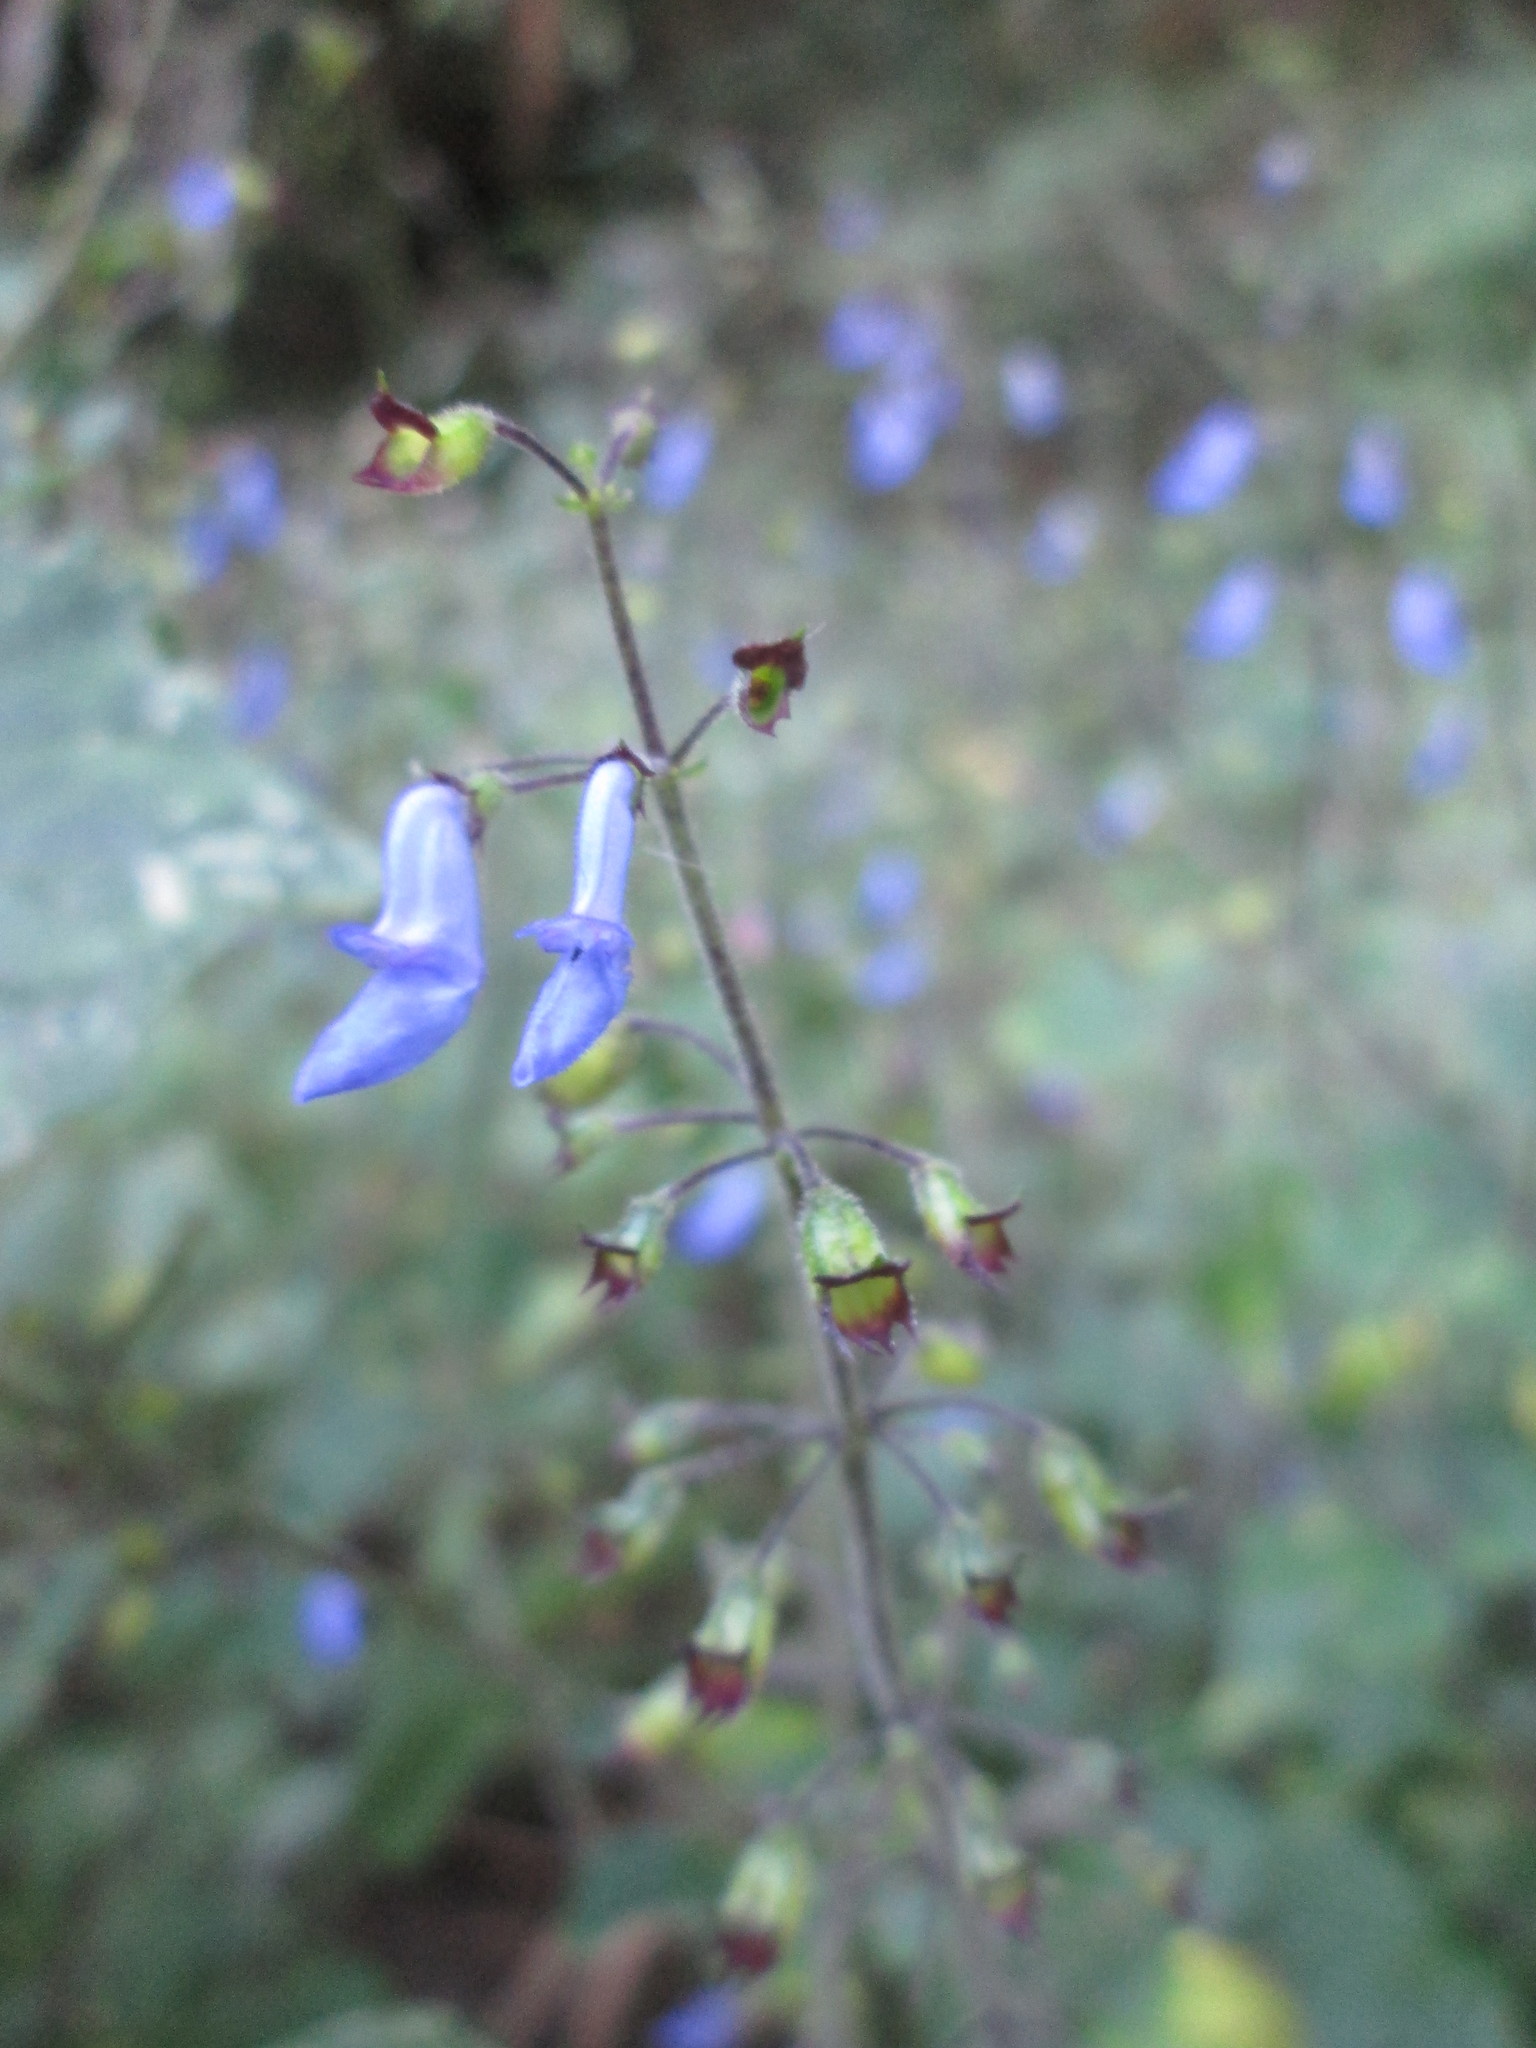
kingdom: Plantae
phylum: Tracheophyta
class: Magnoliopsida
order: Lamiales
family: Lamiaceae
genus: Coleus
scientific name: Coleus dolichopodus
